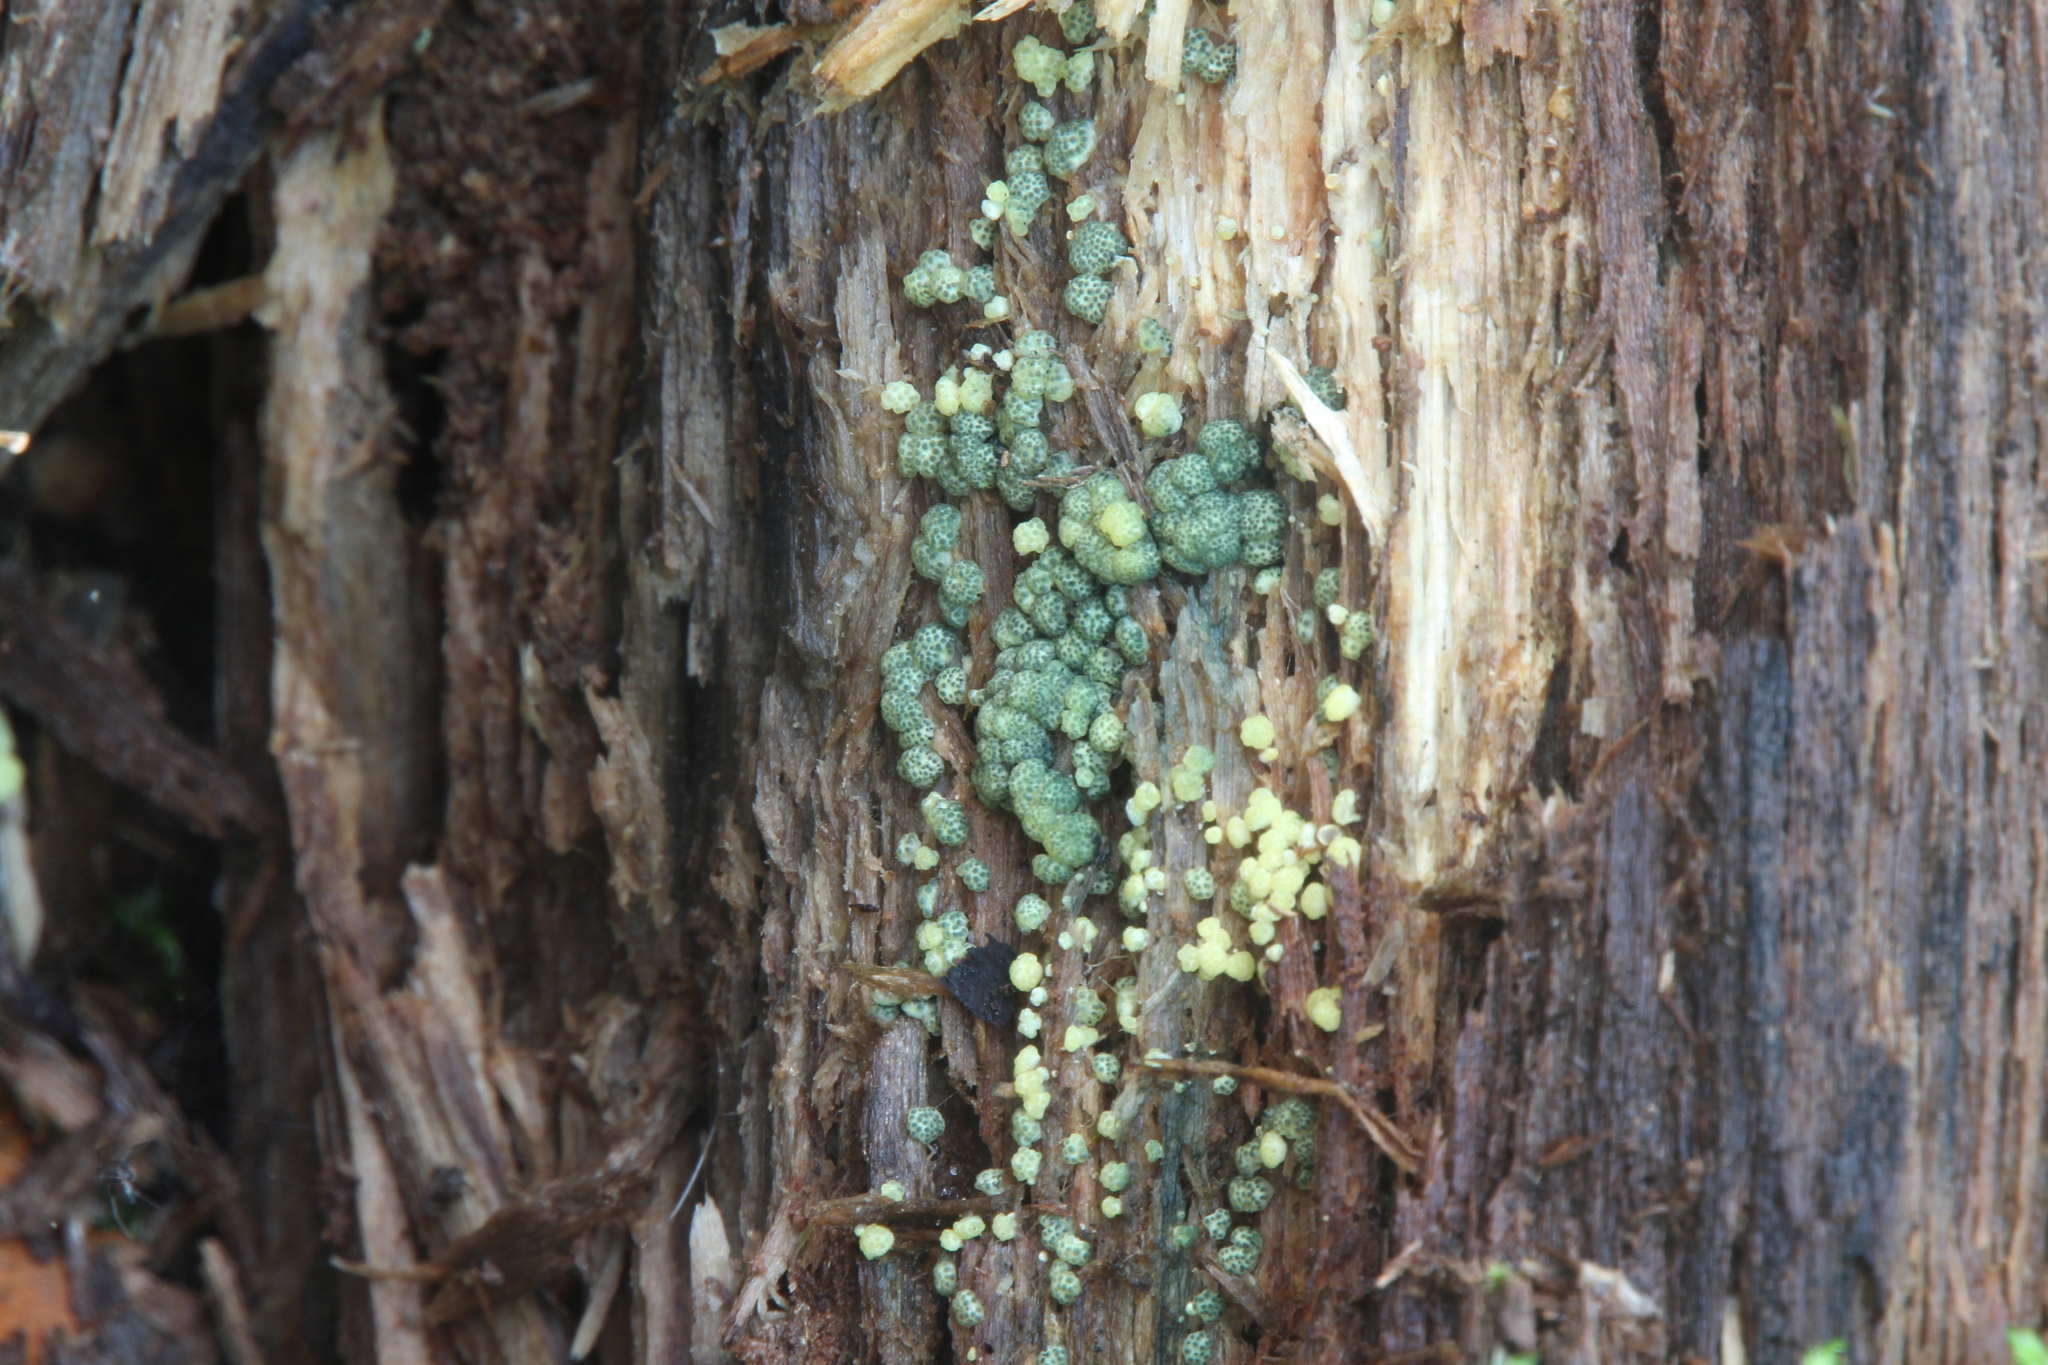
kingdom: Fungi
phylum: Ascomycota
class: Sordariomycetes
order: Hypocreales
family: Hypocreaceae
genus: Trichoderma
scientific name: Trichoderma chromospermum
